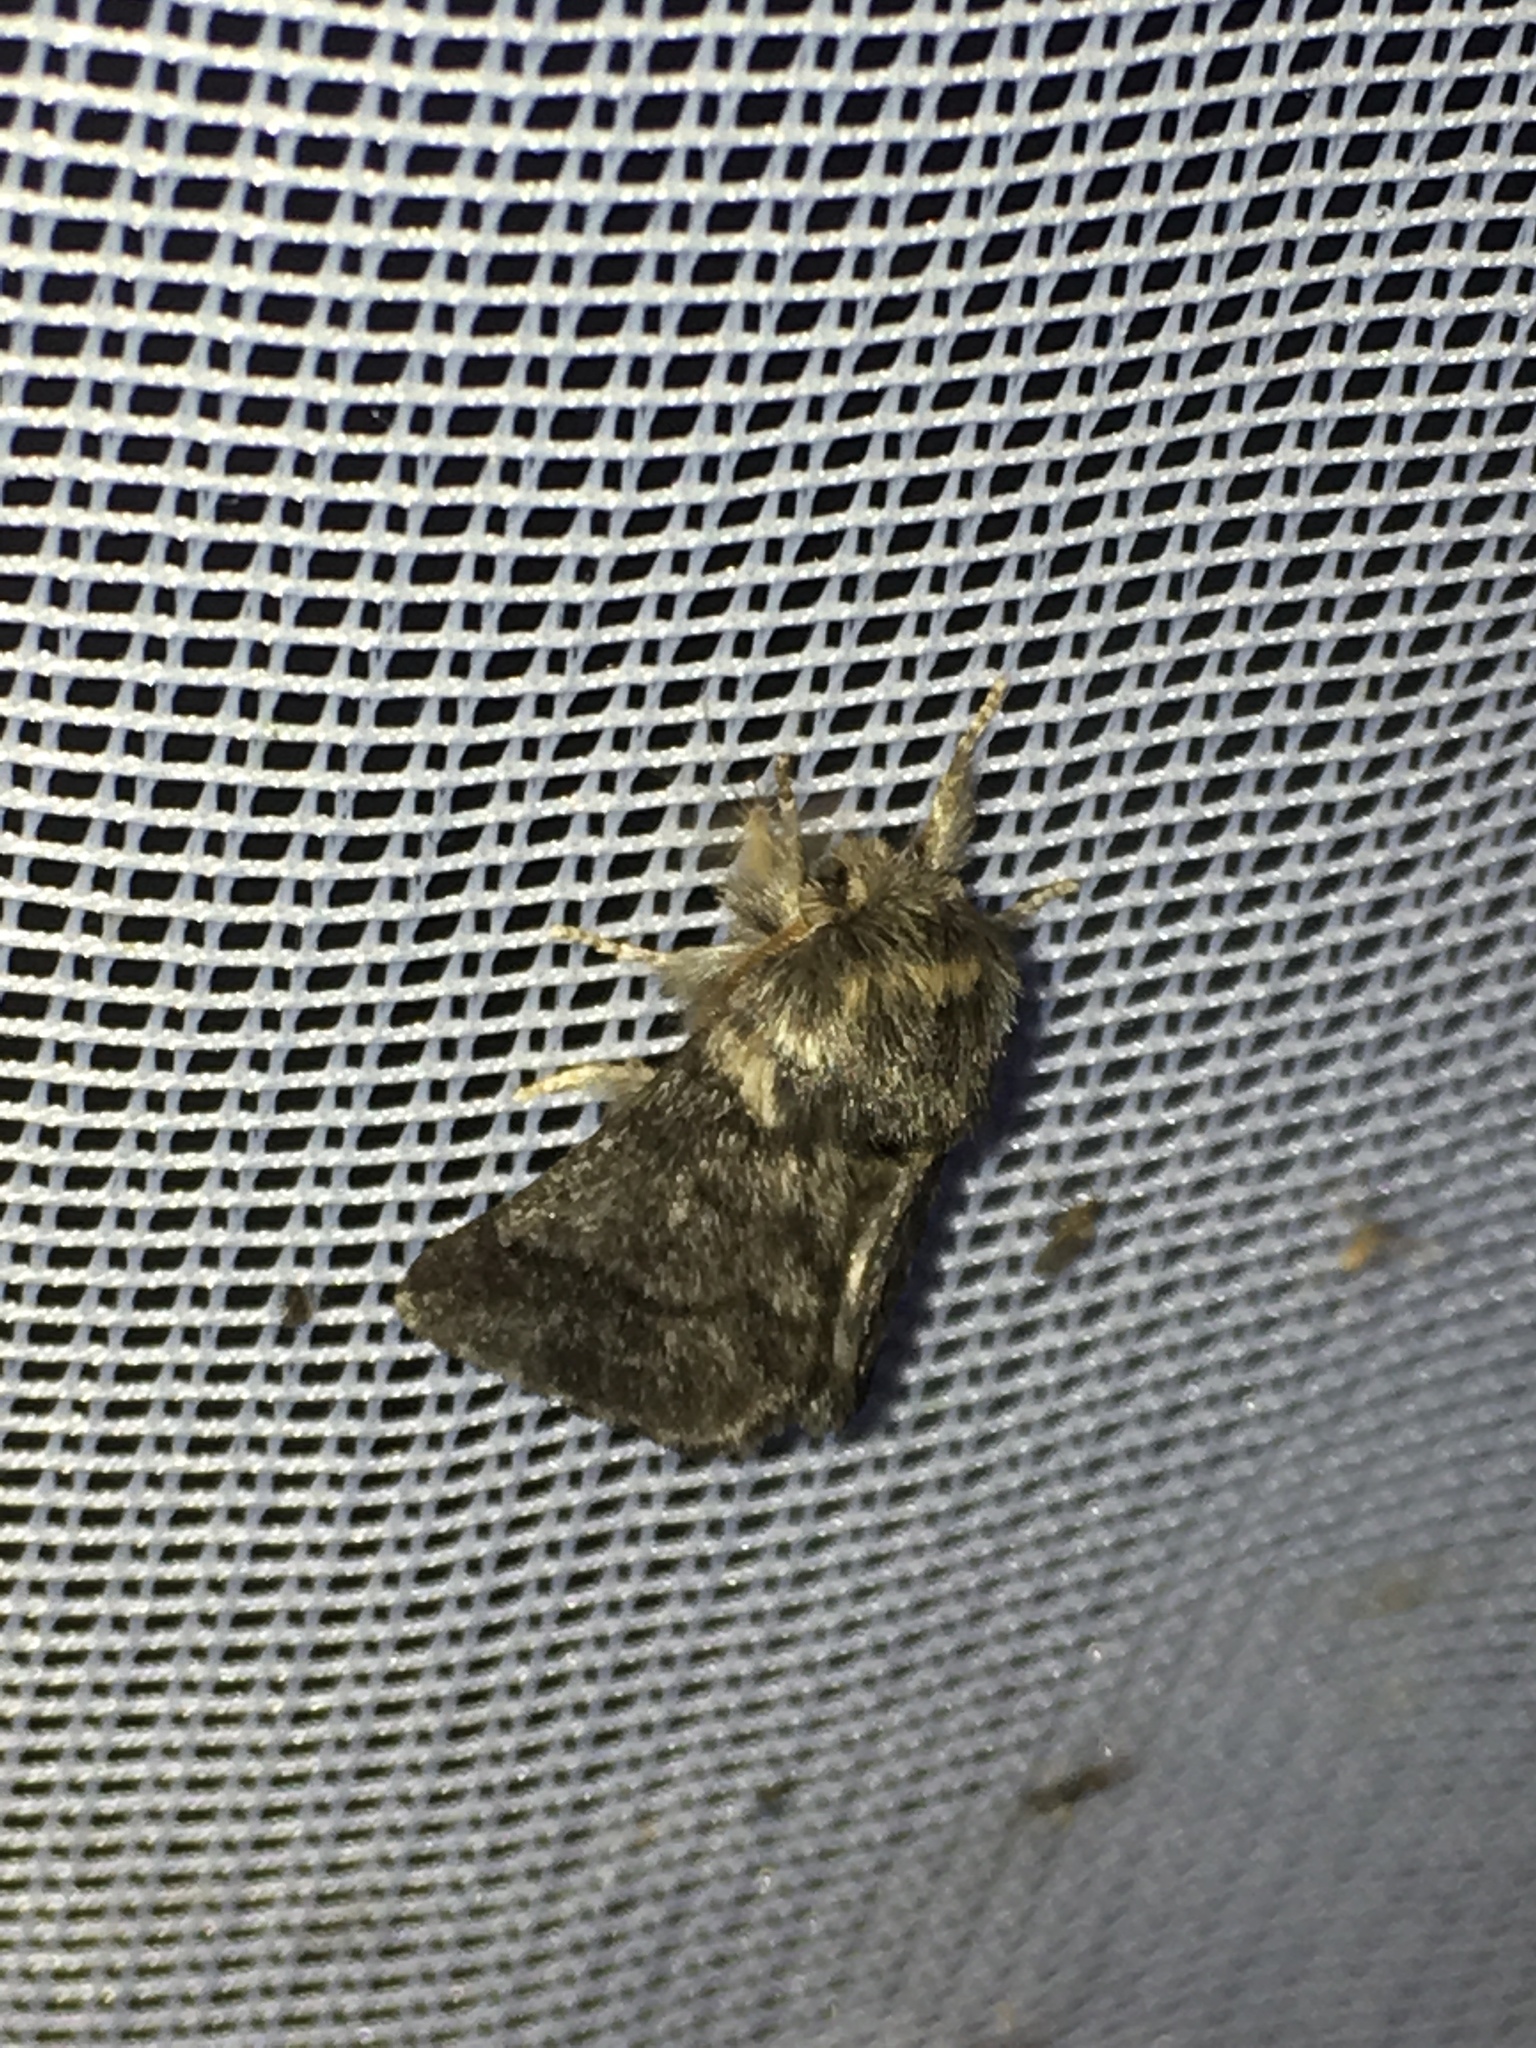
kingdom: Animalia
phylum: Arthropoda
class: Insecta
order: Lepidoptera
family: Notodontidae
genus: Thaumetopoea
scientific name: Thaumetopoea processionea
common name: Oak processionea
